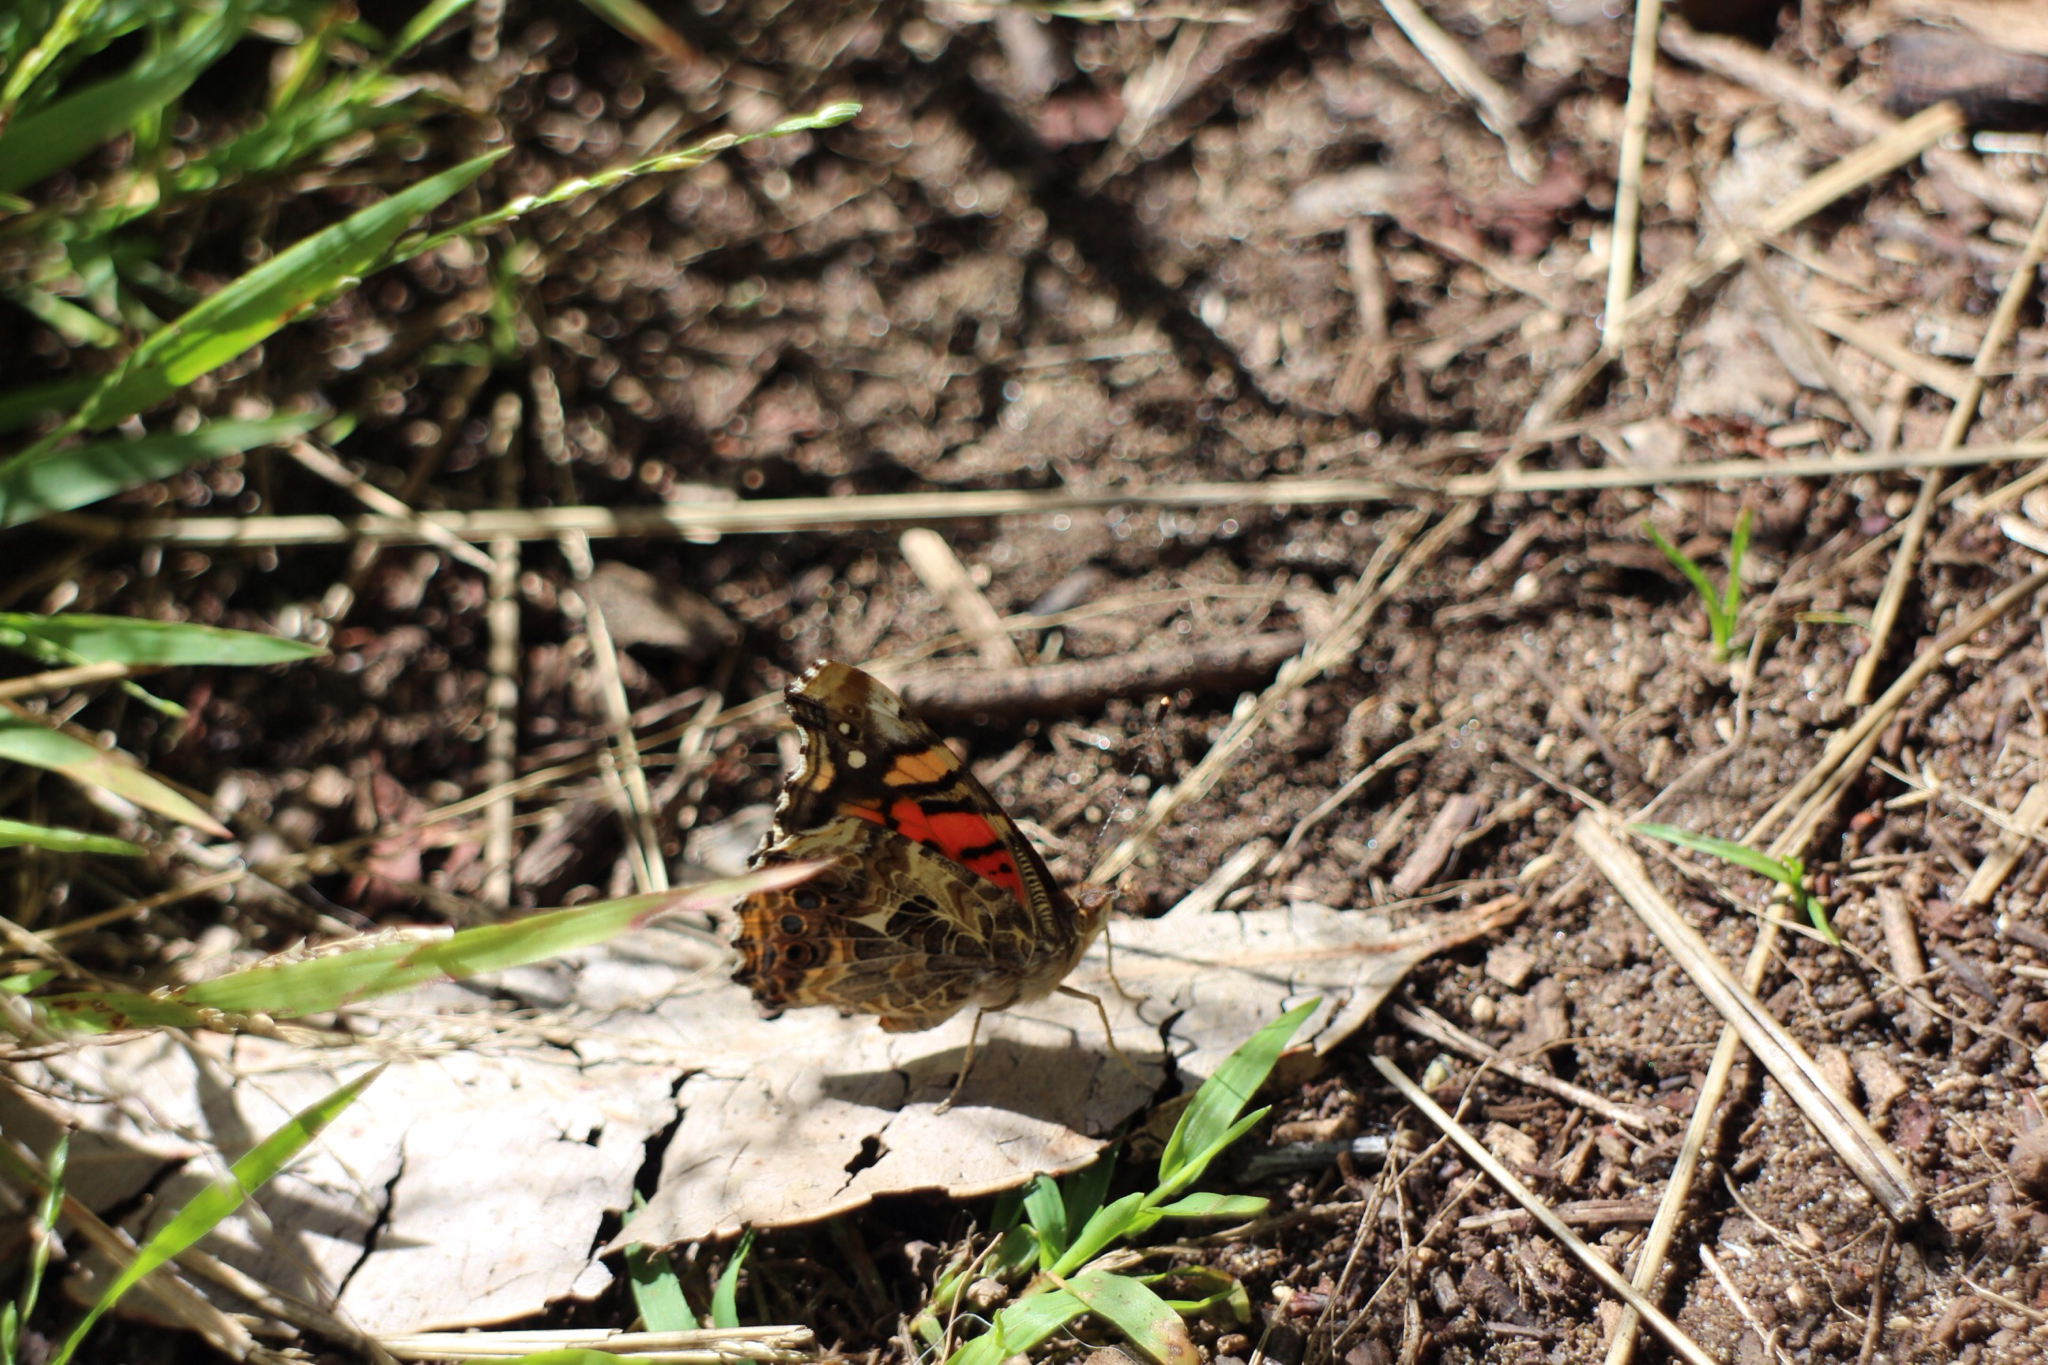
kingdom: Animalia
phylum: Arthropoda
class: Insecta
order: Lepidoptera
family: Nymphalidae
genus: Vanessa
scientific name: Vanessa annabella
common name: West coast lady
